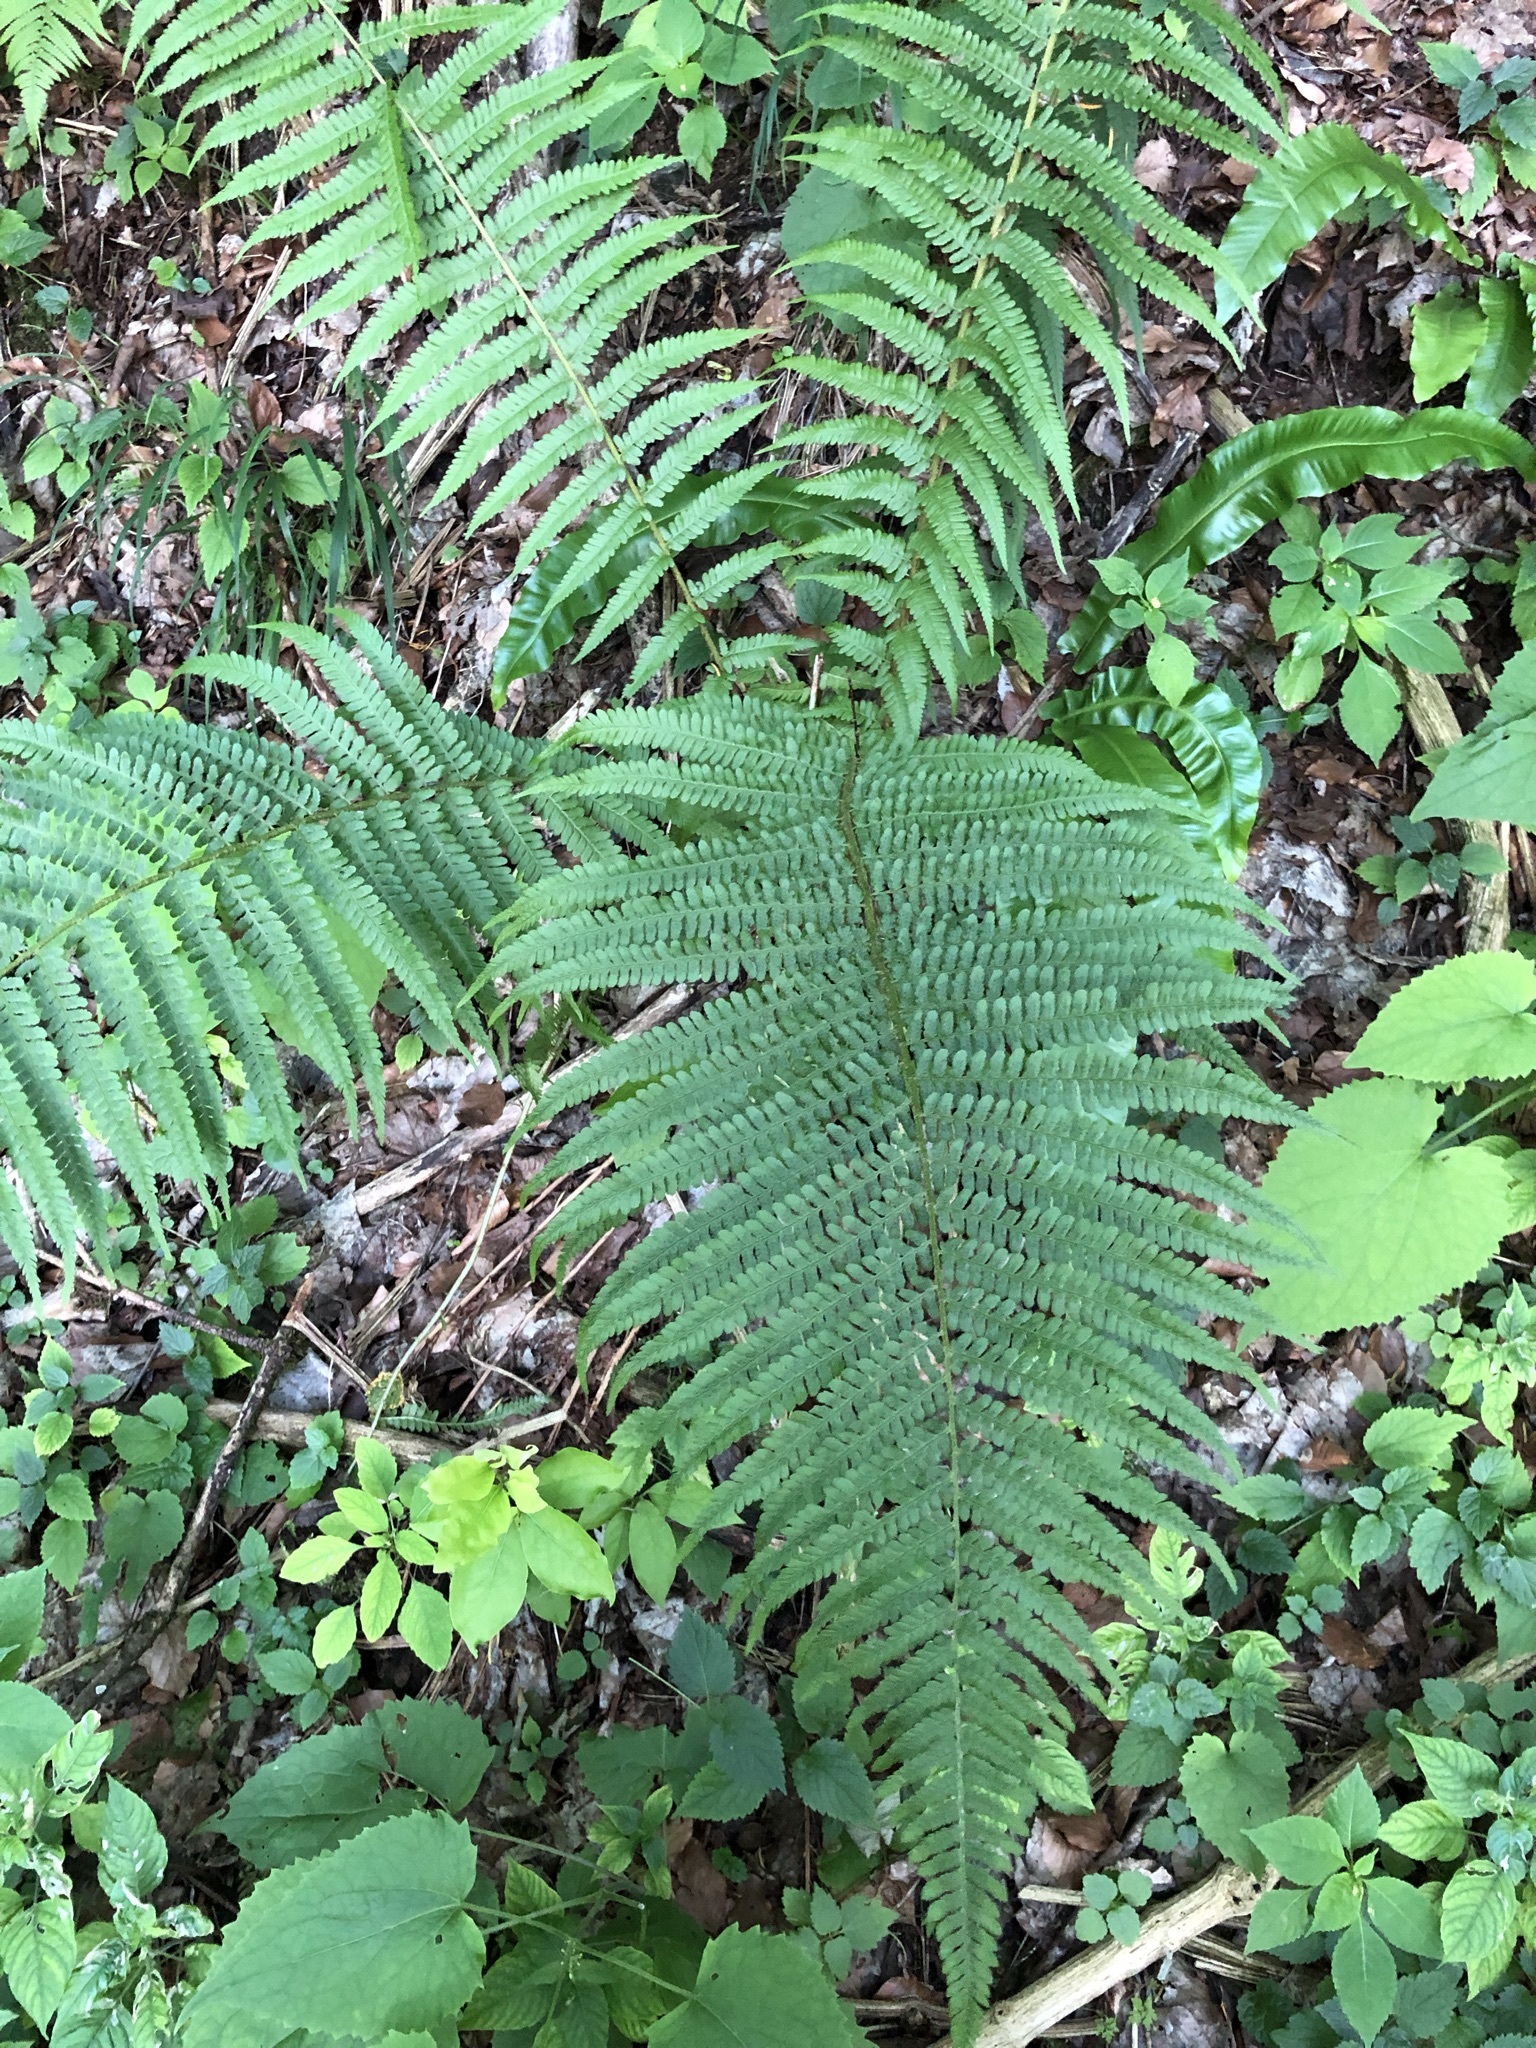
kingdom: Plantae
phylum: Tracheophyta
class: Polypodiopsida
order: Polypodiales
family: Dryopteridaceae
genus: Dryopteris
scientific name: Dryopteris filix-mas
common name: Male fern
